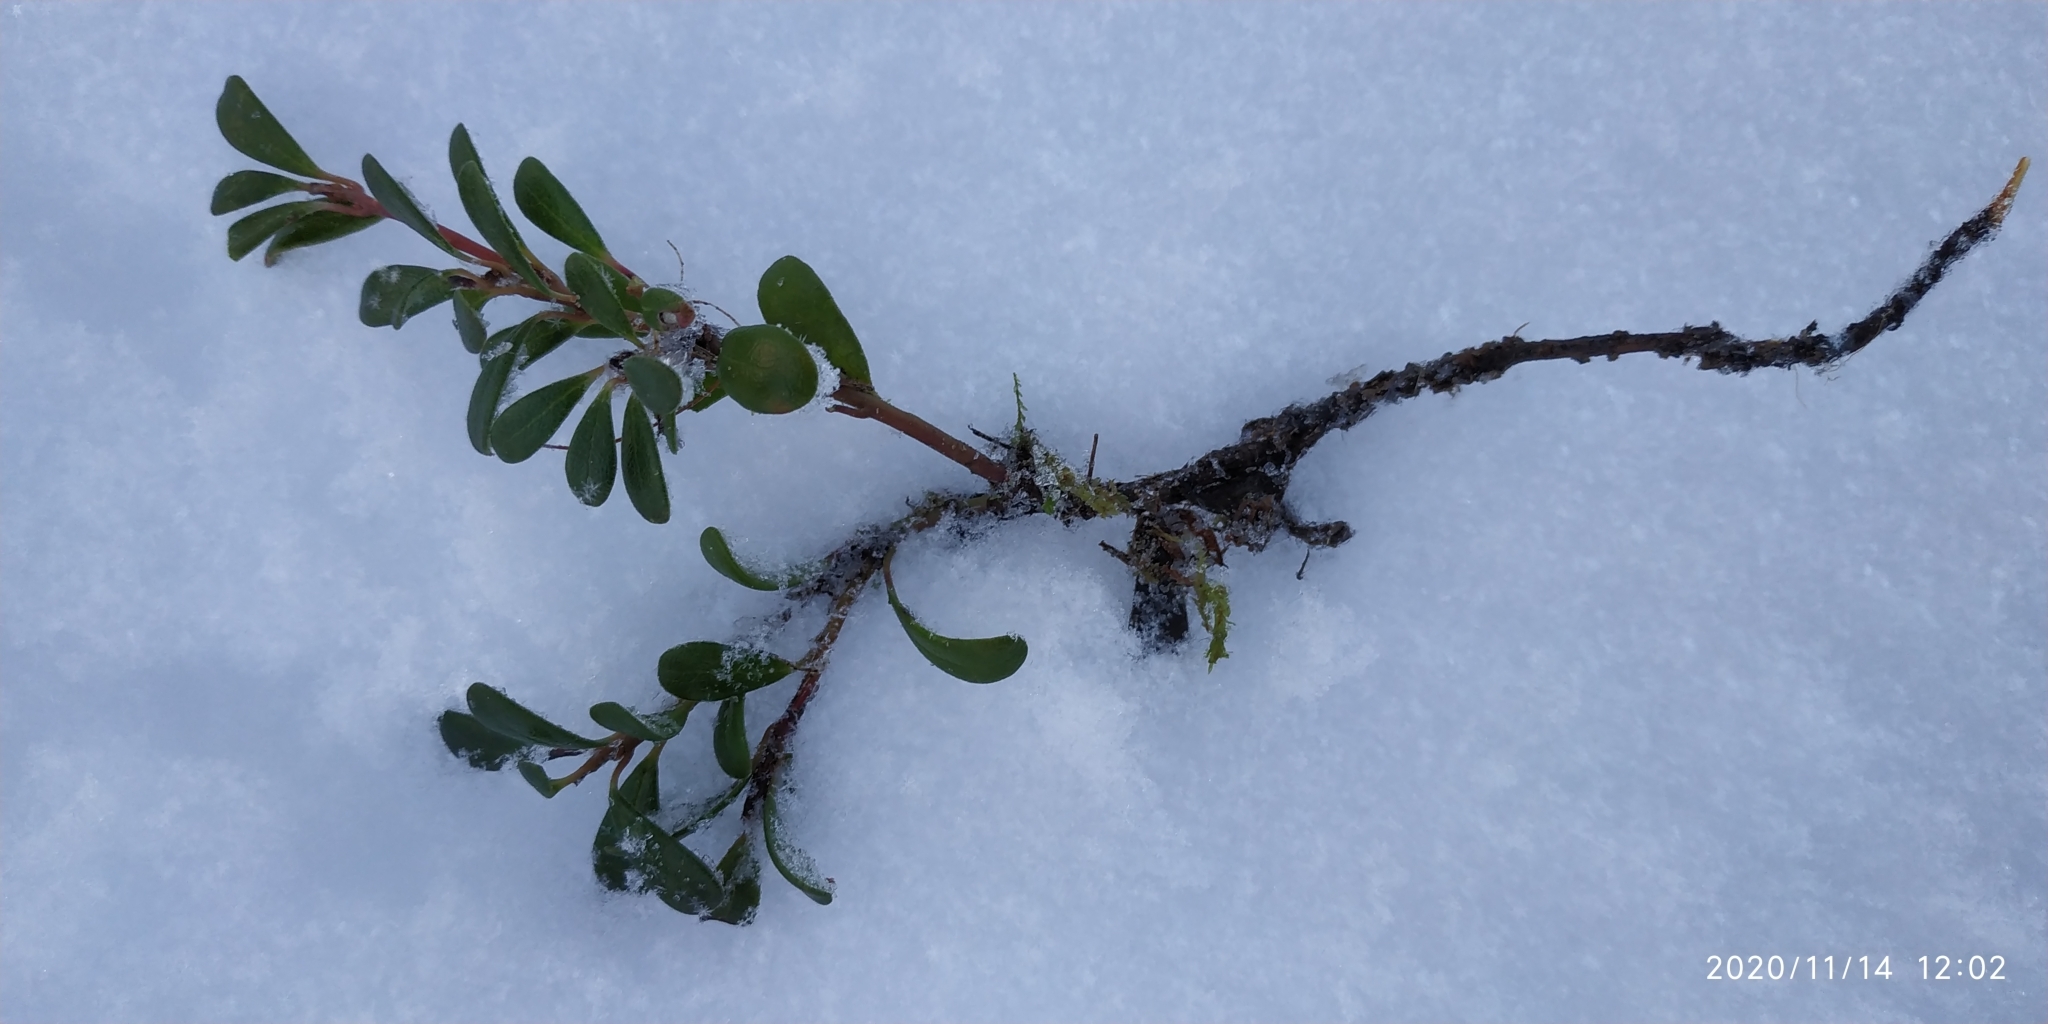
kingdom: Plantae
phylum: Tracheophyta
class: Magnoliopsida
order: Ericales
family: Ericaceae
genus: Arctostaphylos
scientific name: Arctostaphylos uva-ursi
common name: Bearberry
